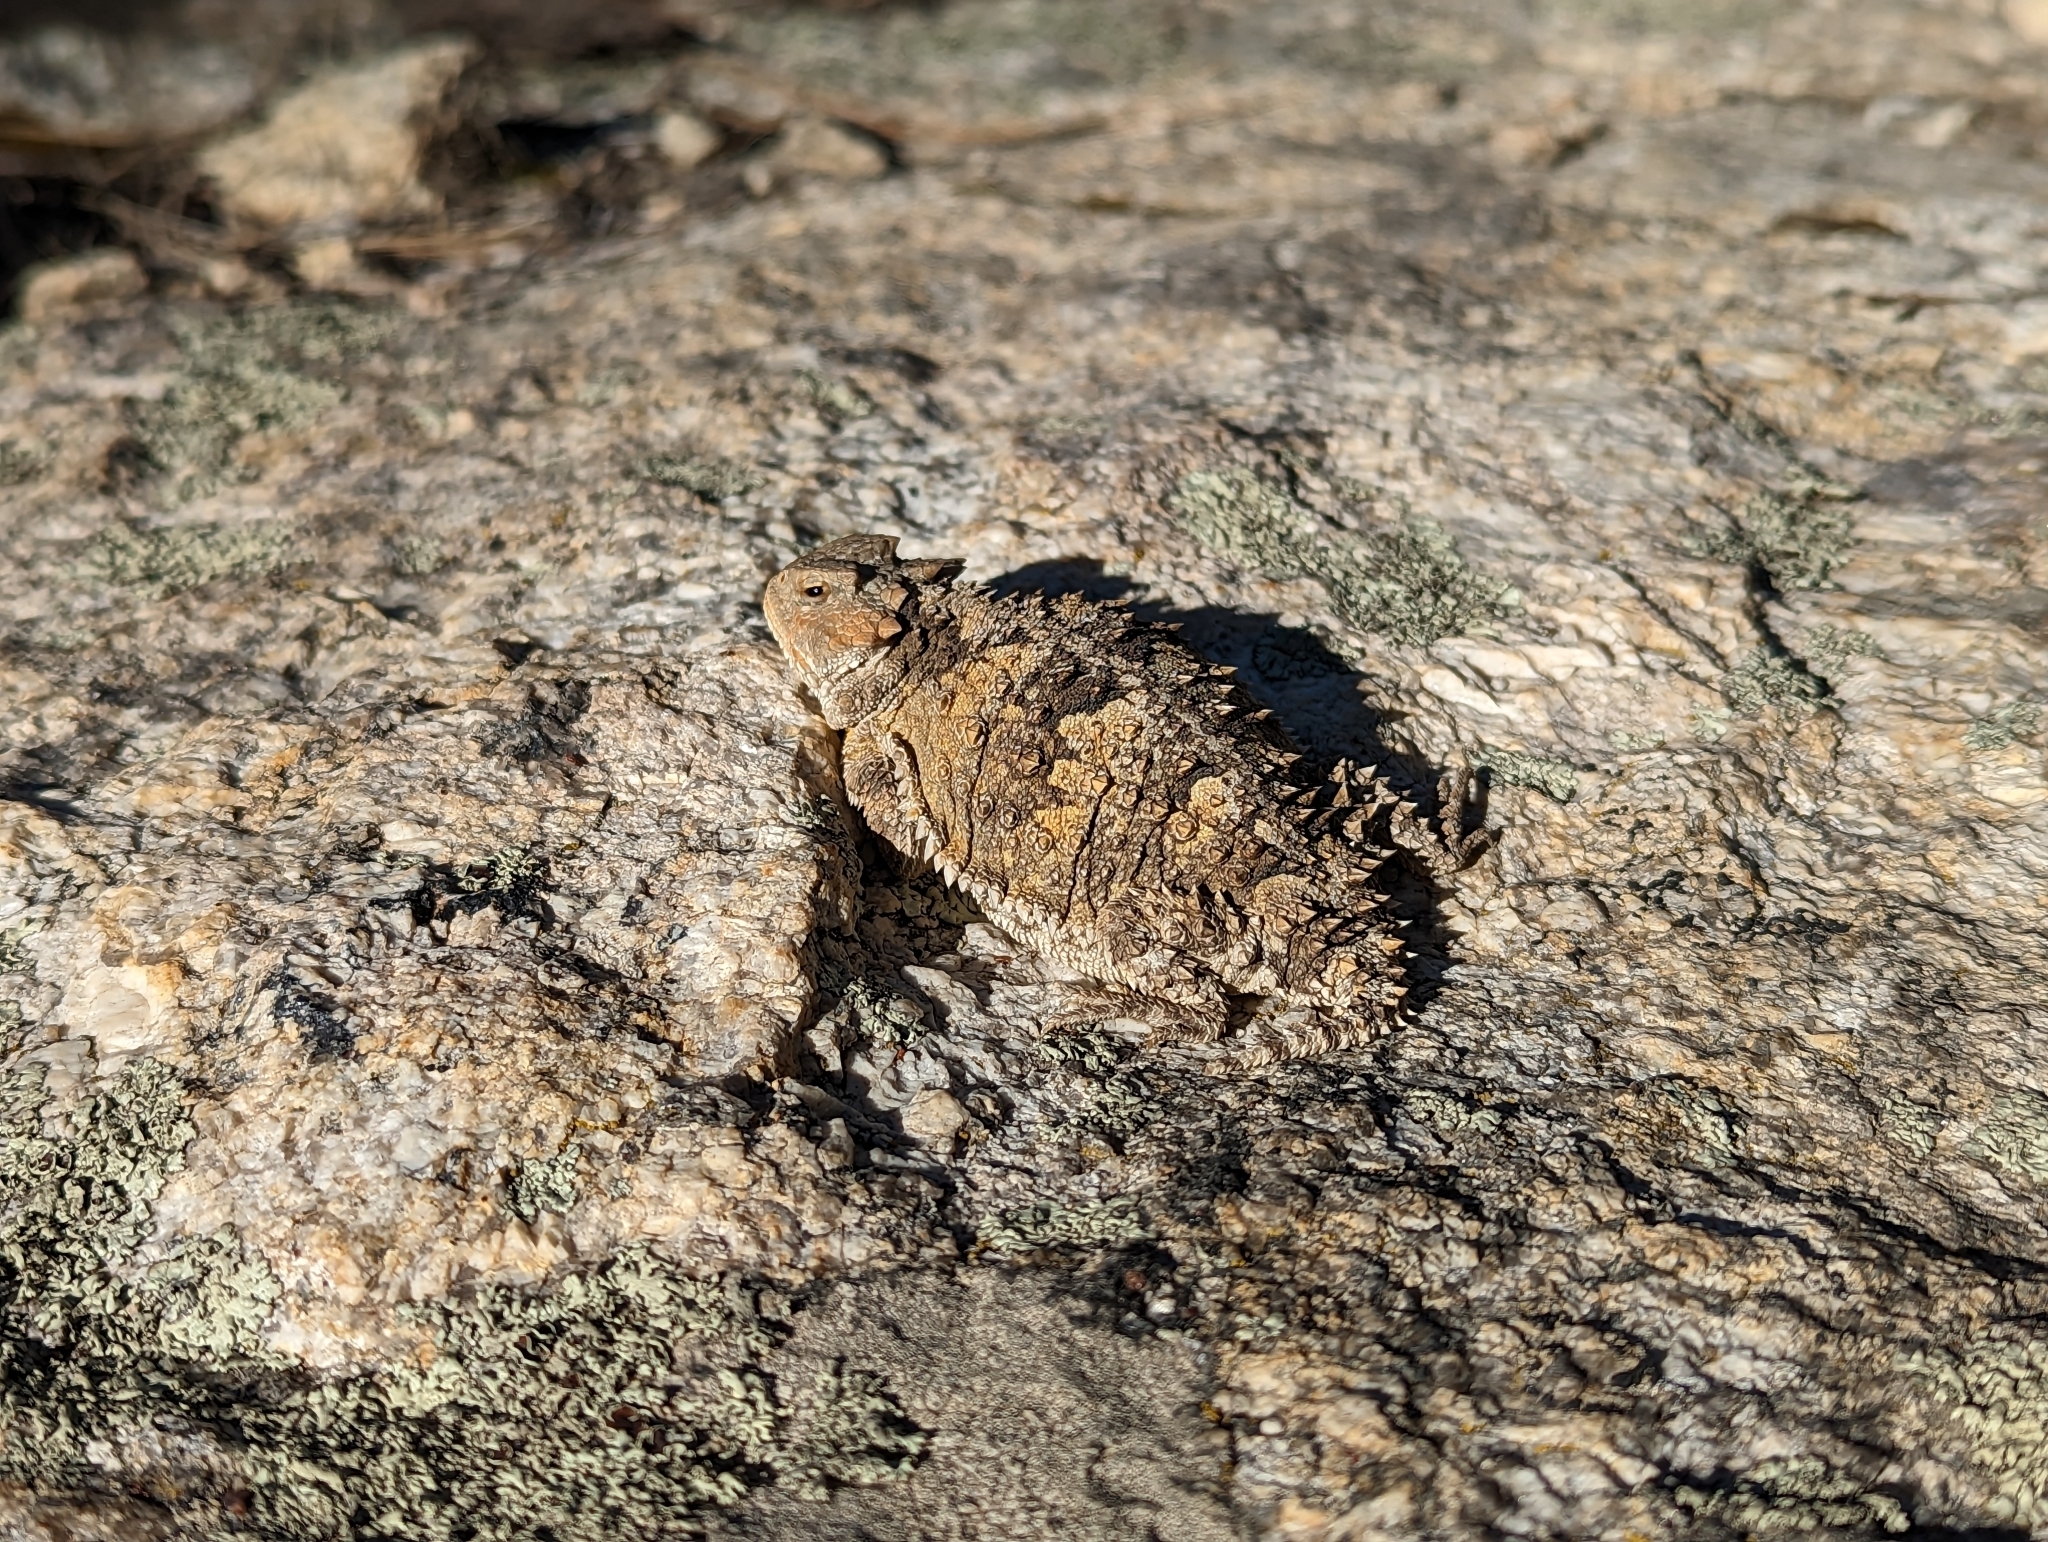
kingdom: Animalia
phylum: Chordata
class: Squamata
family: Phrynosomatidae
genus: Phrynosoma
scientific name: Phrynosoma hernandesi
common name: Greater short-horned lizard
